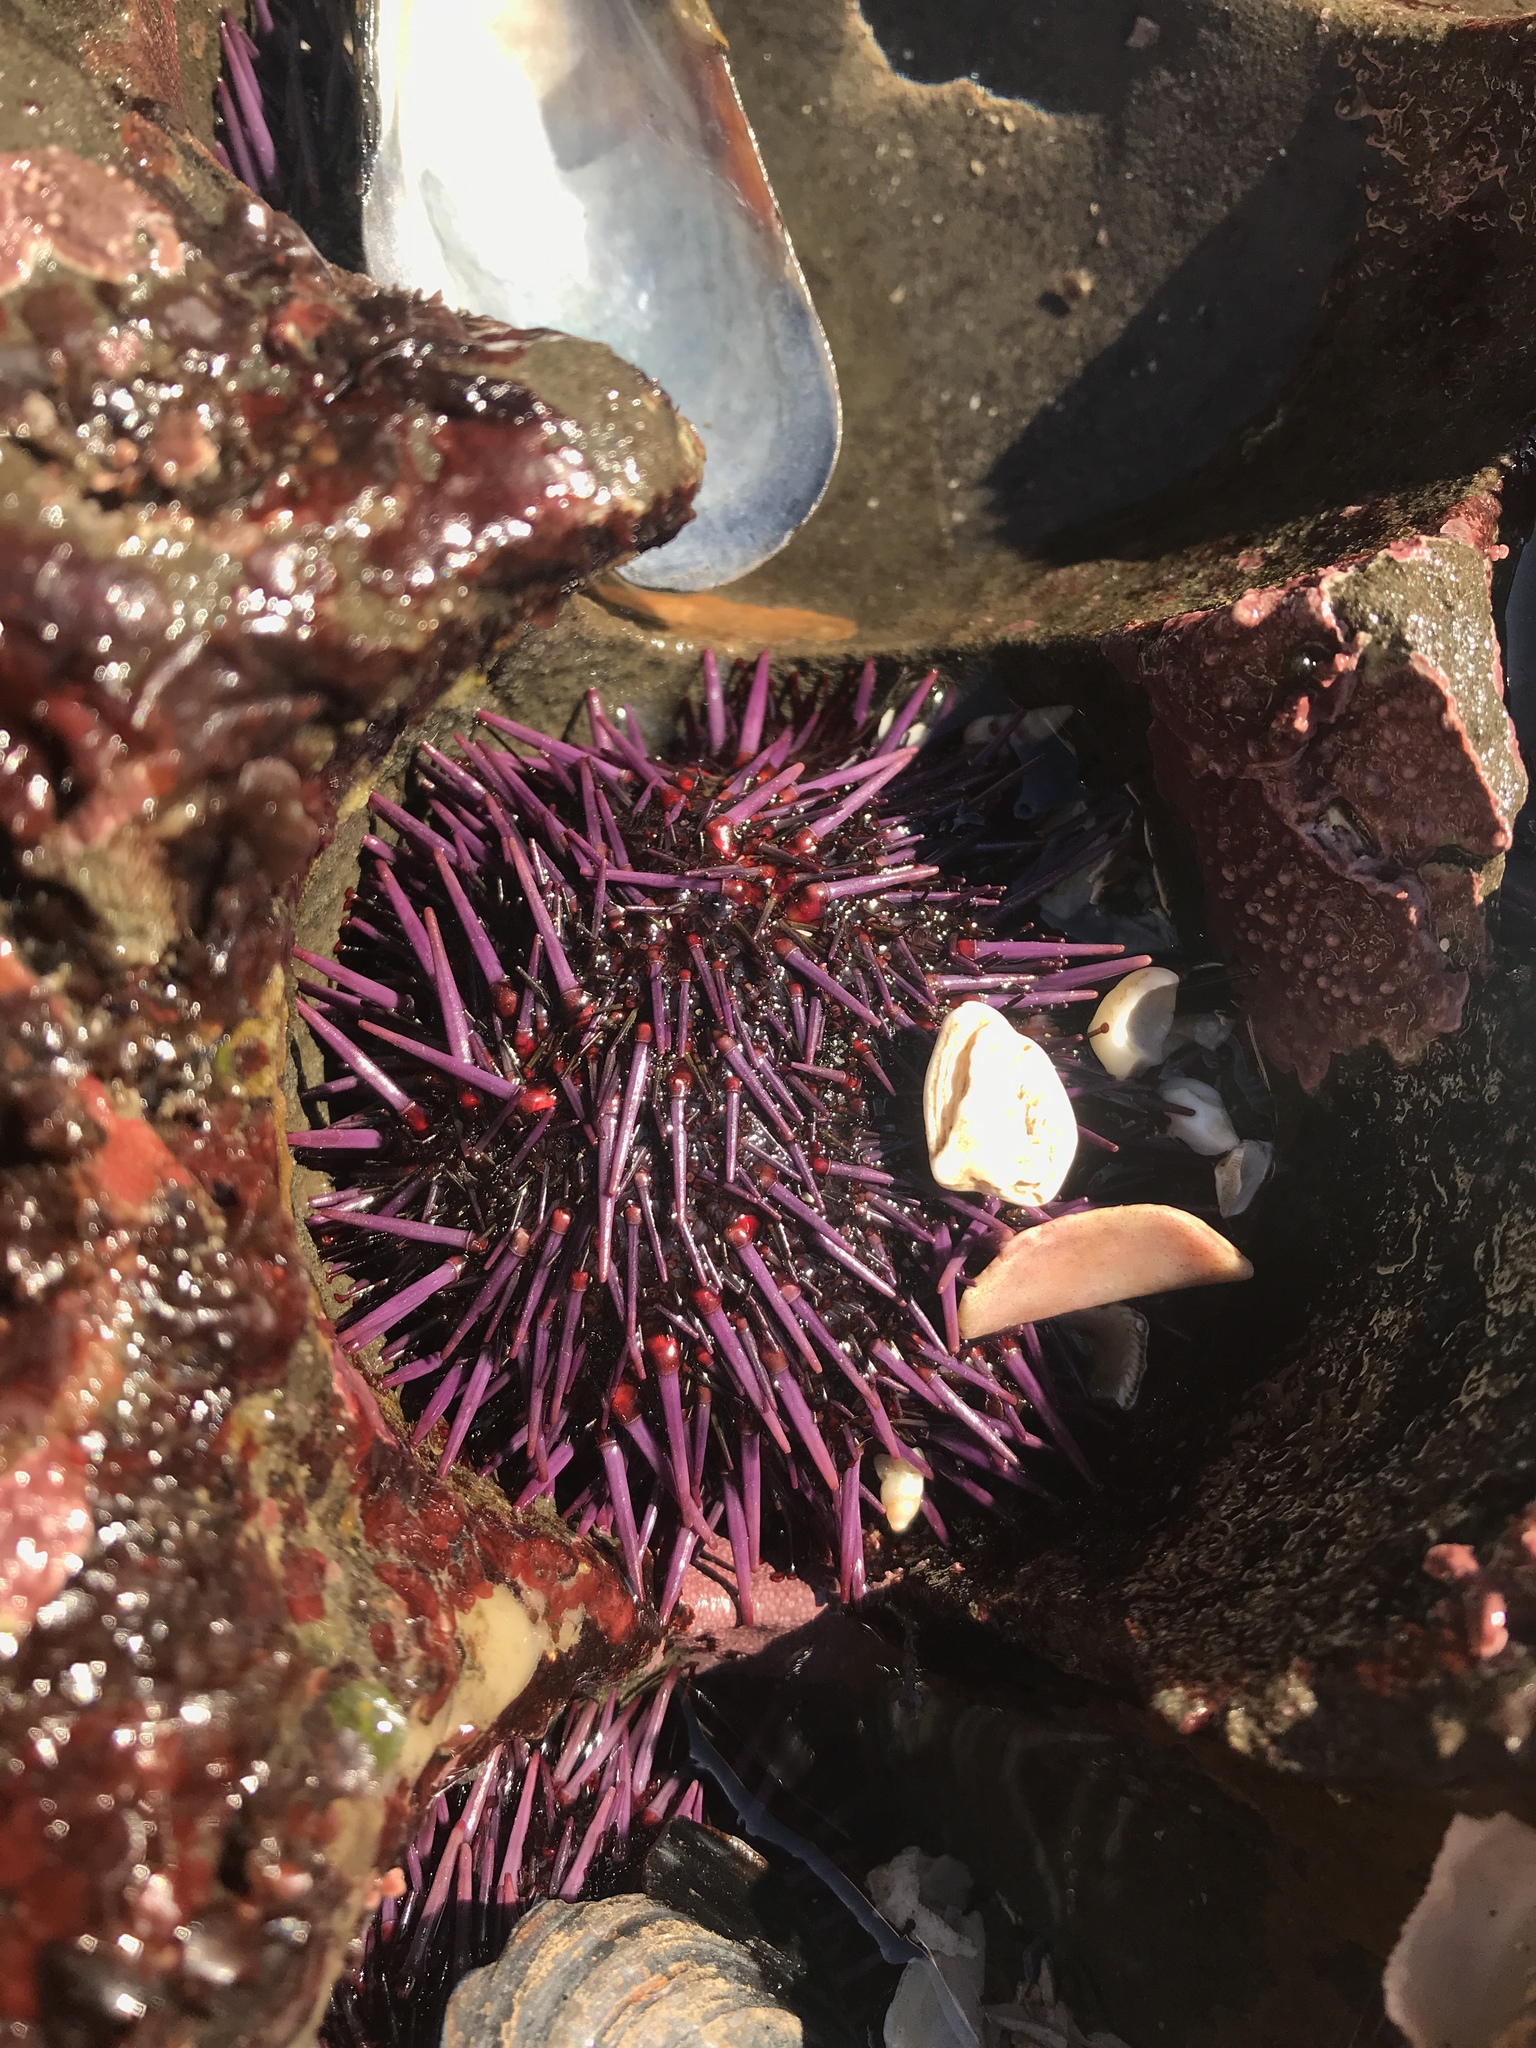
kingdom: Animalia
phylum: Echinodermata
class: Echinoidea
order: Camarodonta
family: Strongylocentrotidae
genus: Strongylocentrotus
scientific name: Strongylocentrotus purpuratus
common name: Purple sea urchin
